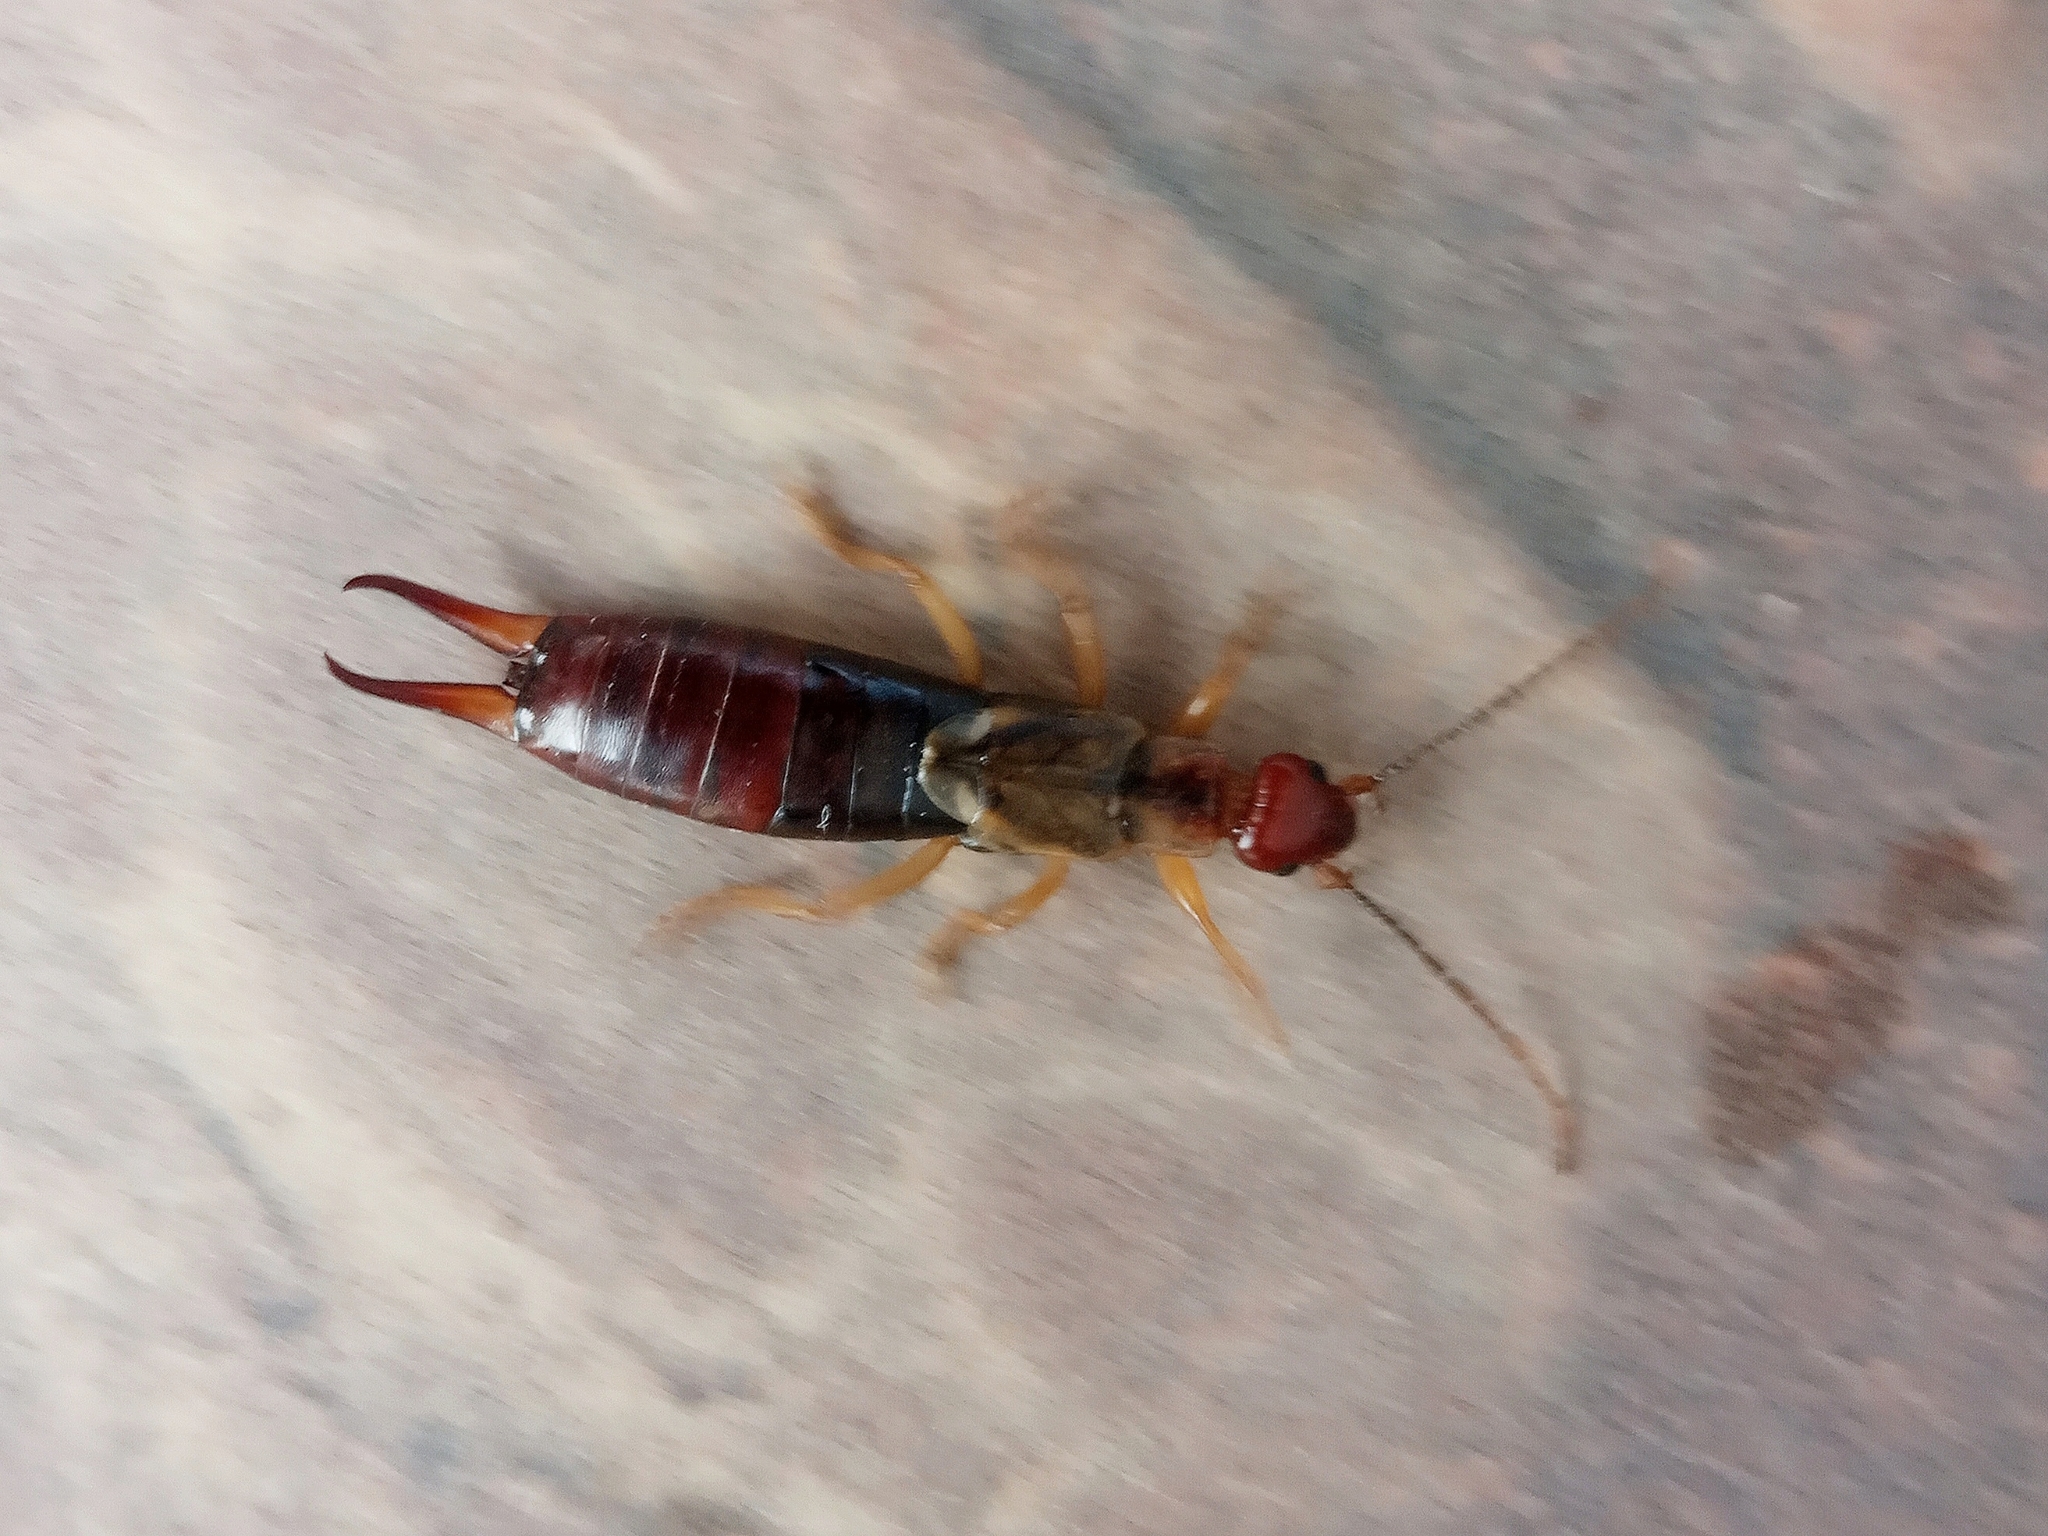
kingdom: Animalia
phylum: Arthropoda
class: Insecta
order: Dermaptera
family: Forficulidae
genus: Forficula
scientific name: Forficula
